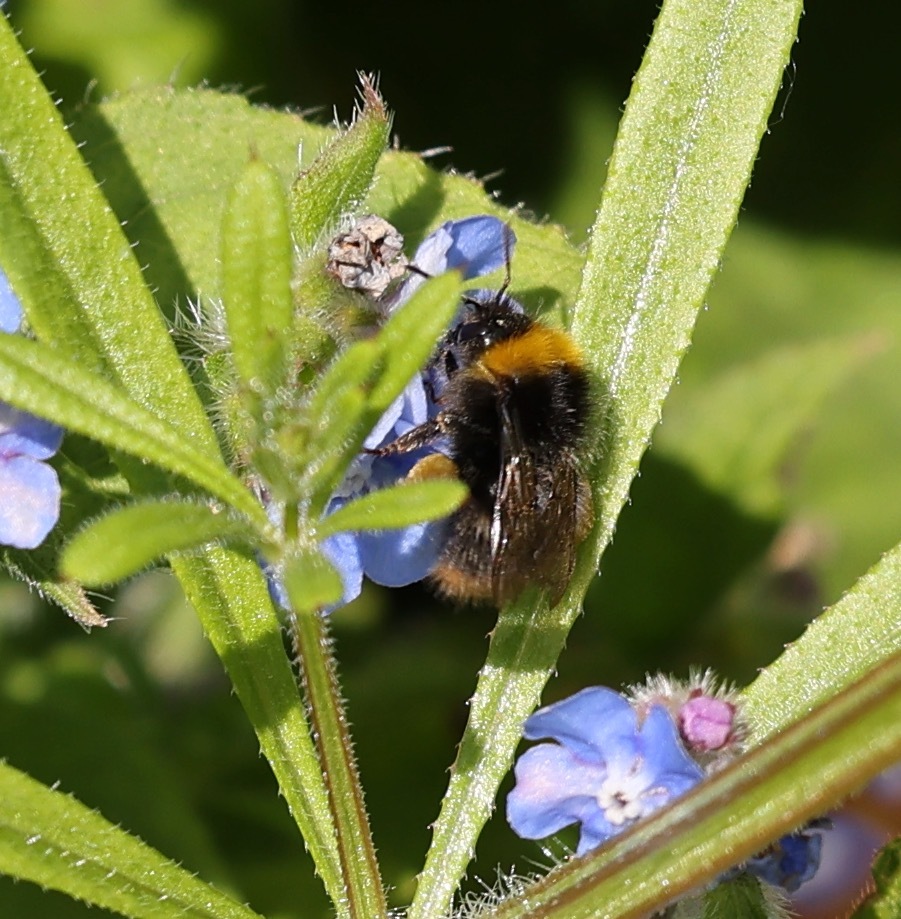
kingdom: Animalia
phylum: Arthropoda
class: Insecta
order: Hymenoptera
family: Apidae
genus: Bombus
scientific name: Bombus pratorum
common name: Early humble-bee
